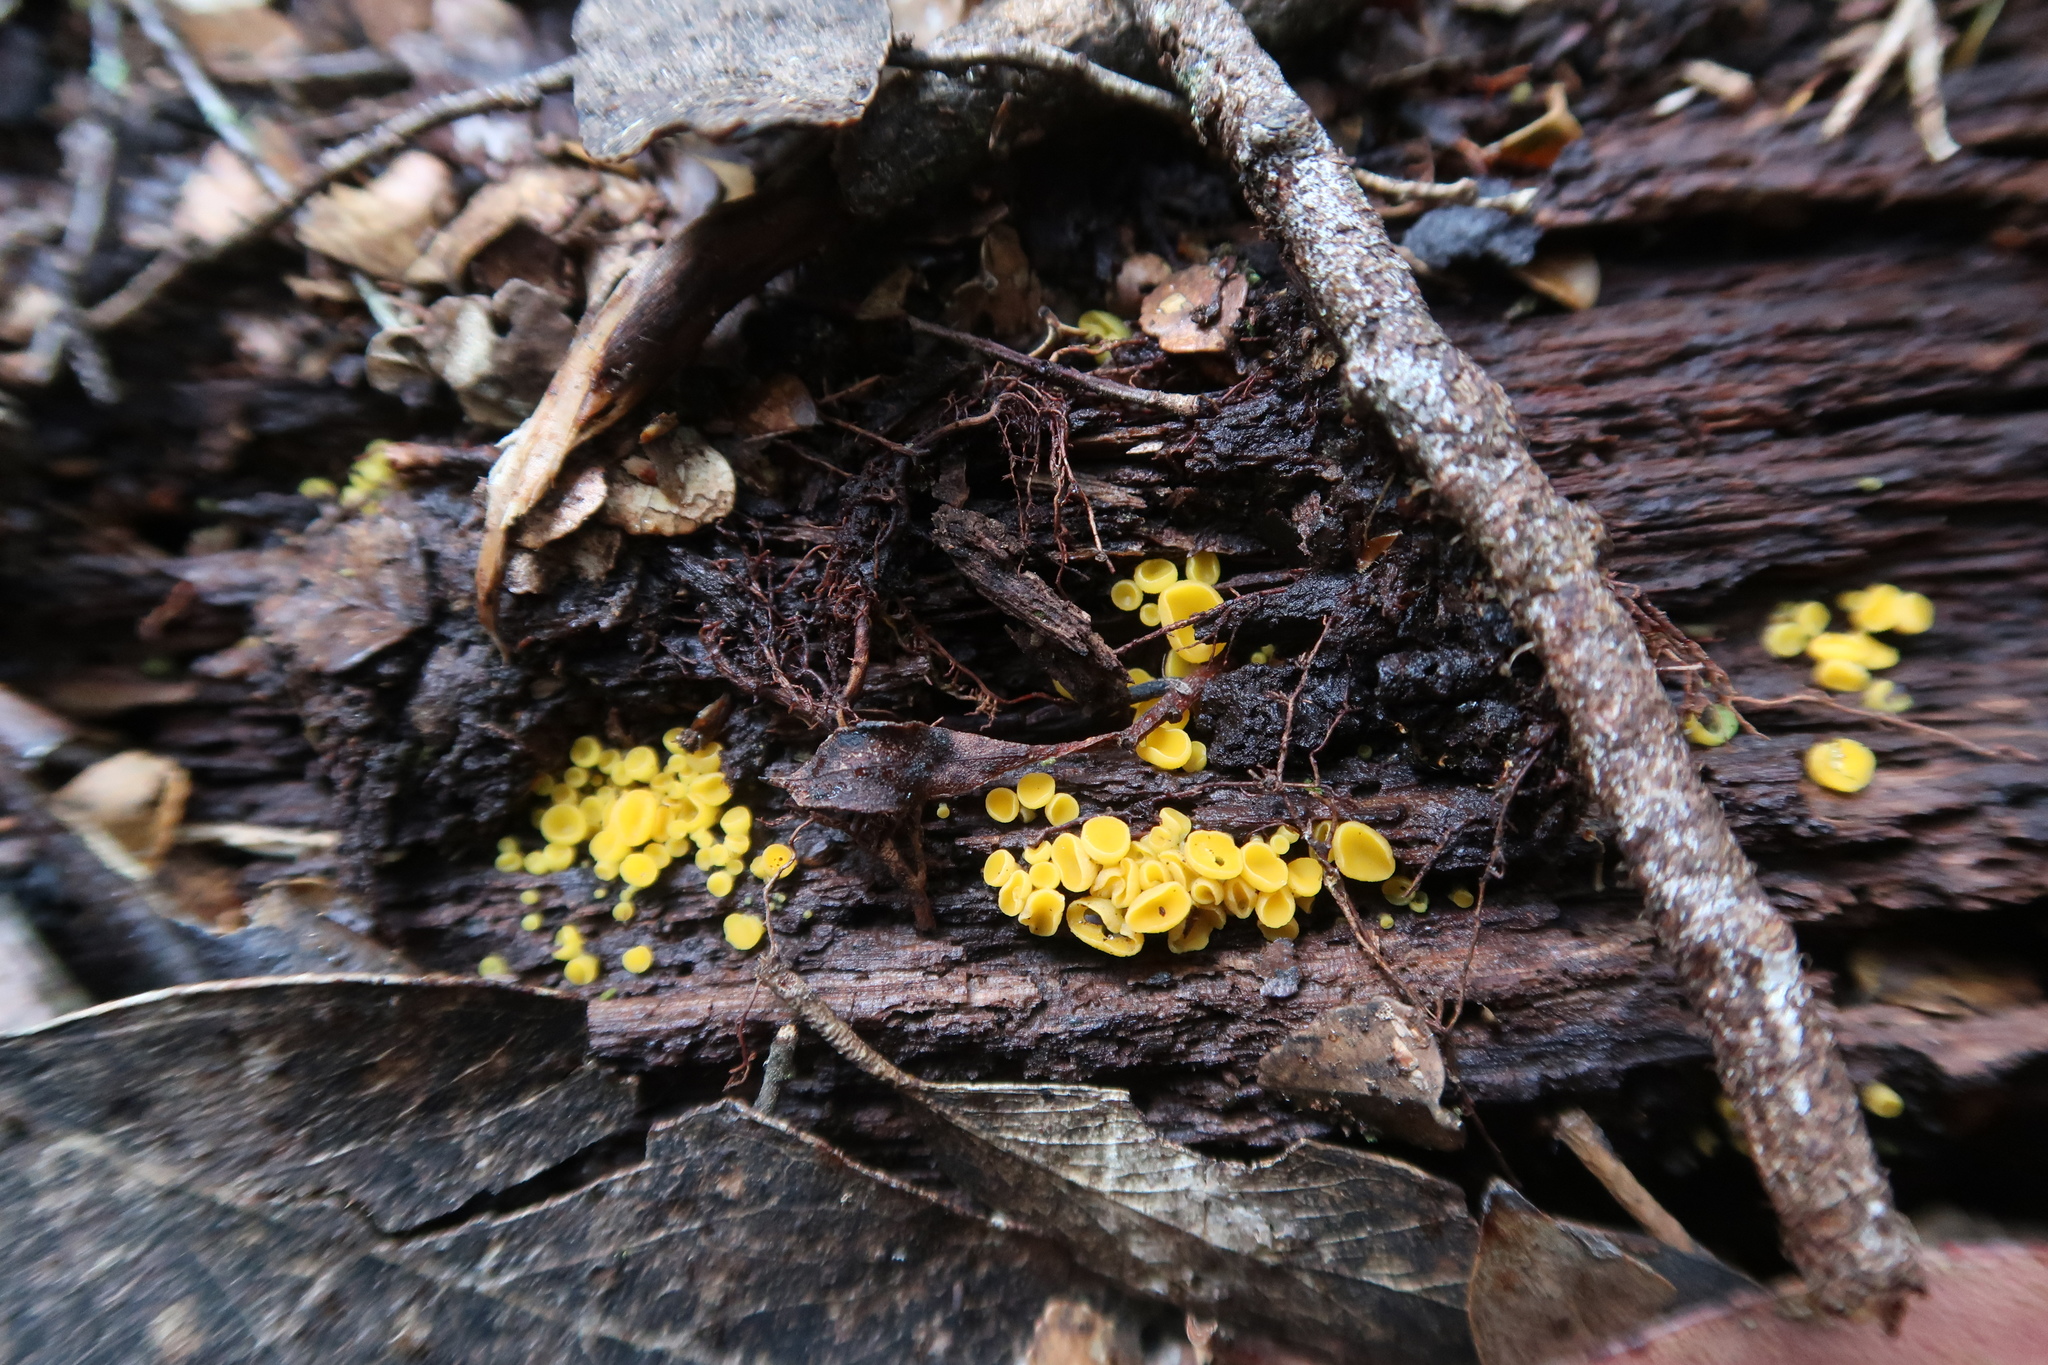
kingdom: Fungi
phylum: Ascomycota
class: Leotiomycetes
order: Helotiales
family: Pezizellaceae
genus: Calycina
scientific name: Calycina citrina
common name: Yellow fairy cups
